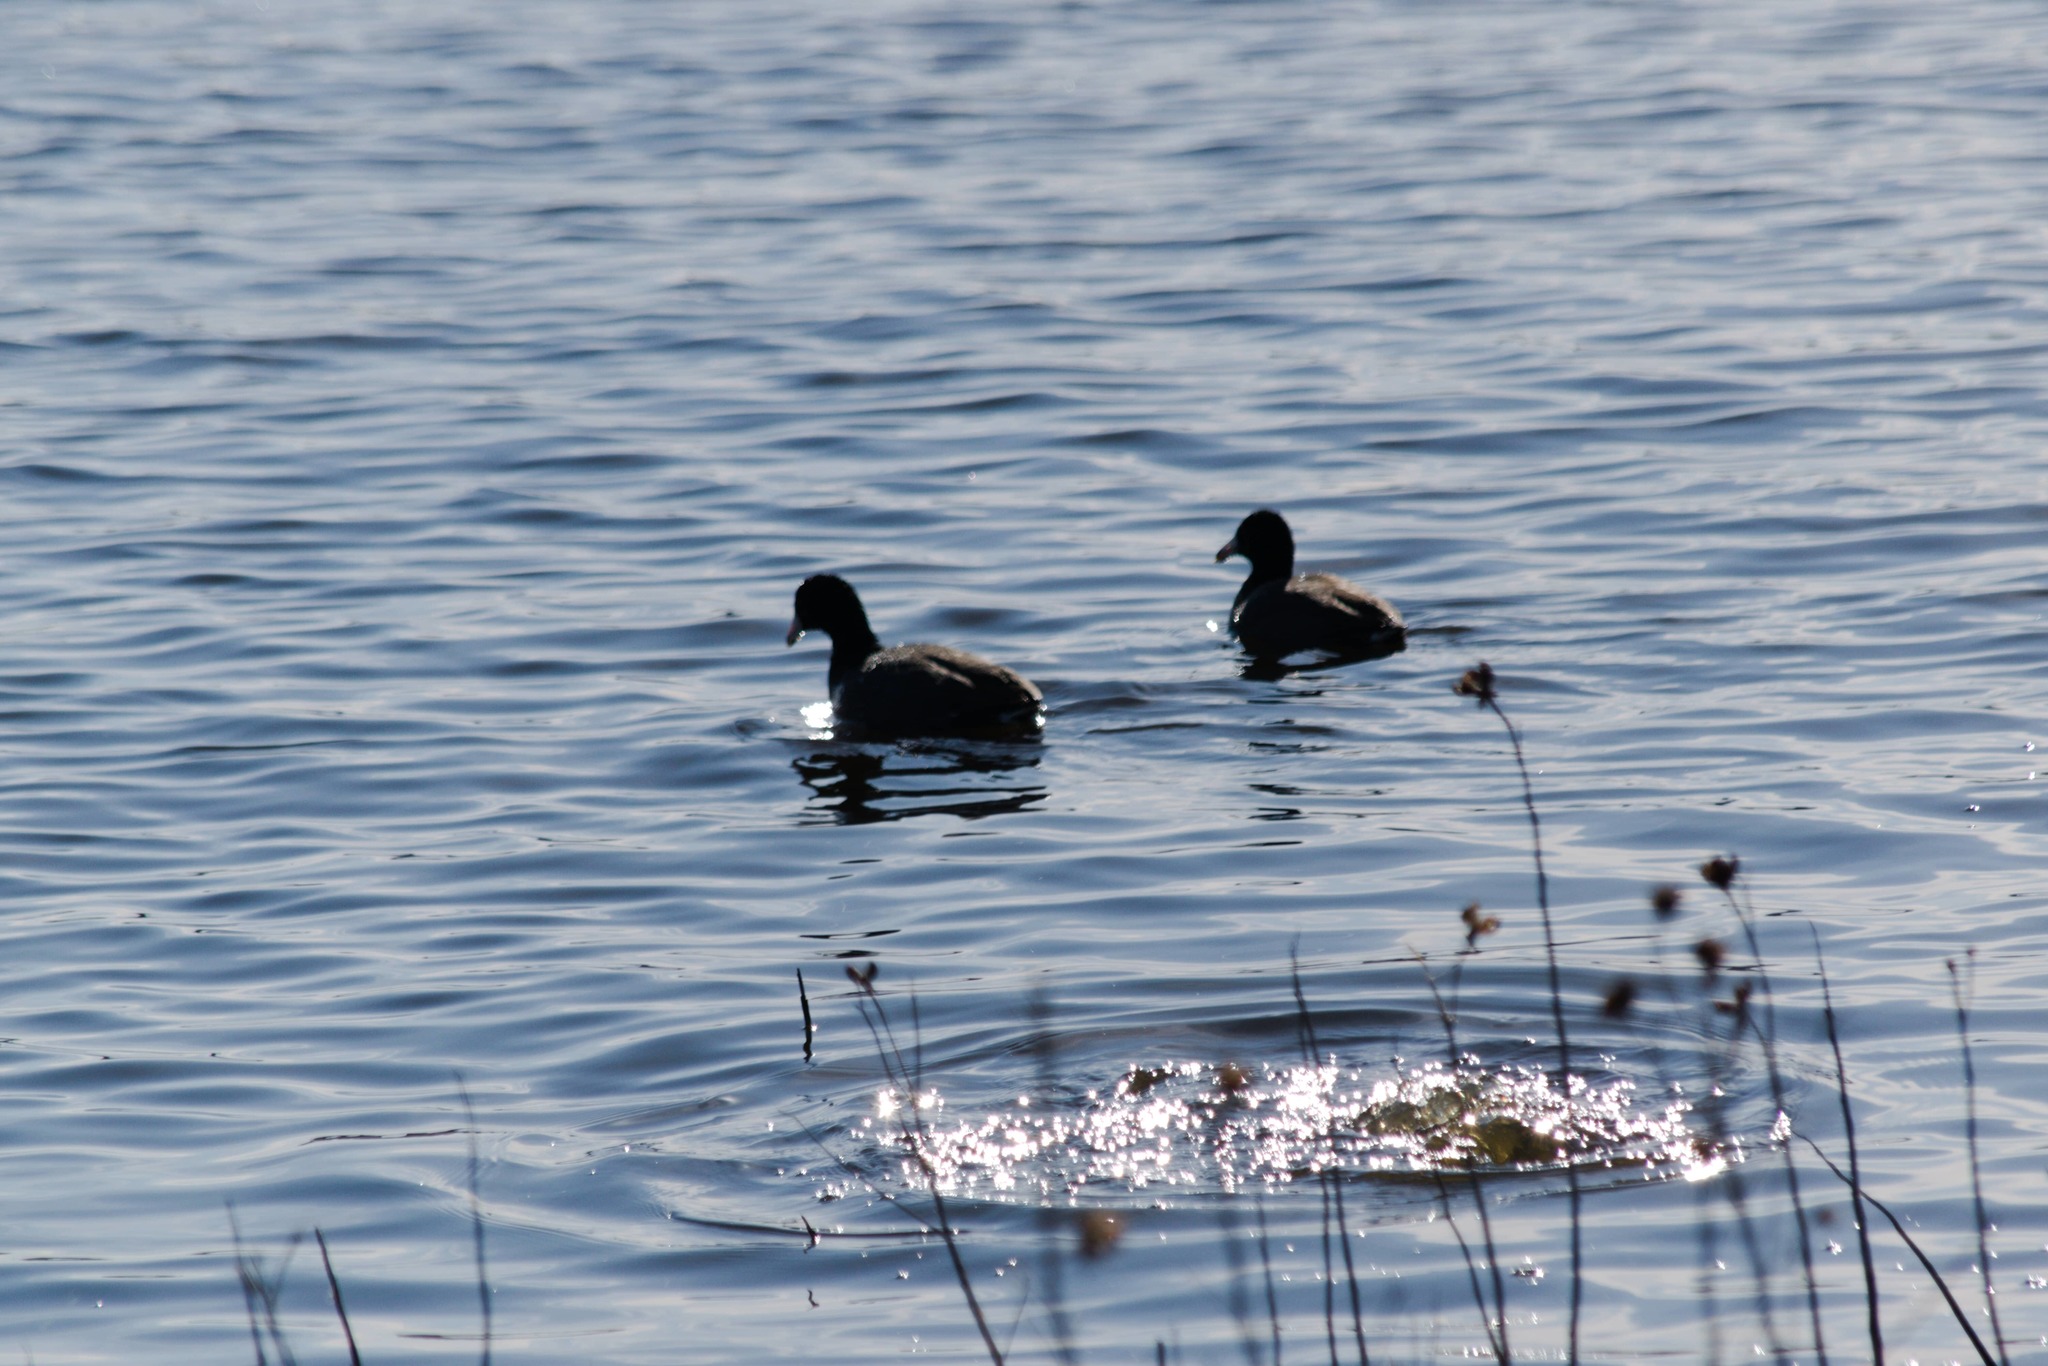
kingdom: Animalia
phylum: Chordata
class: Aves
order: Gruiformes
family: Rallidae
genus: Fulica
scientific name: Fulica americana
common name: American coot
